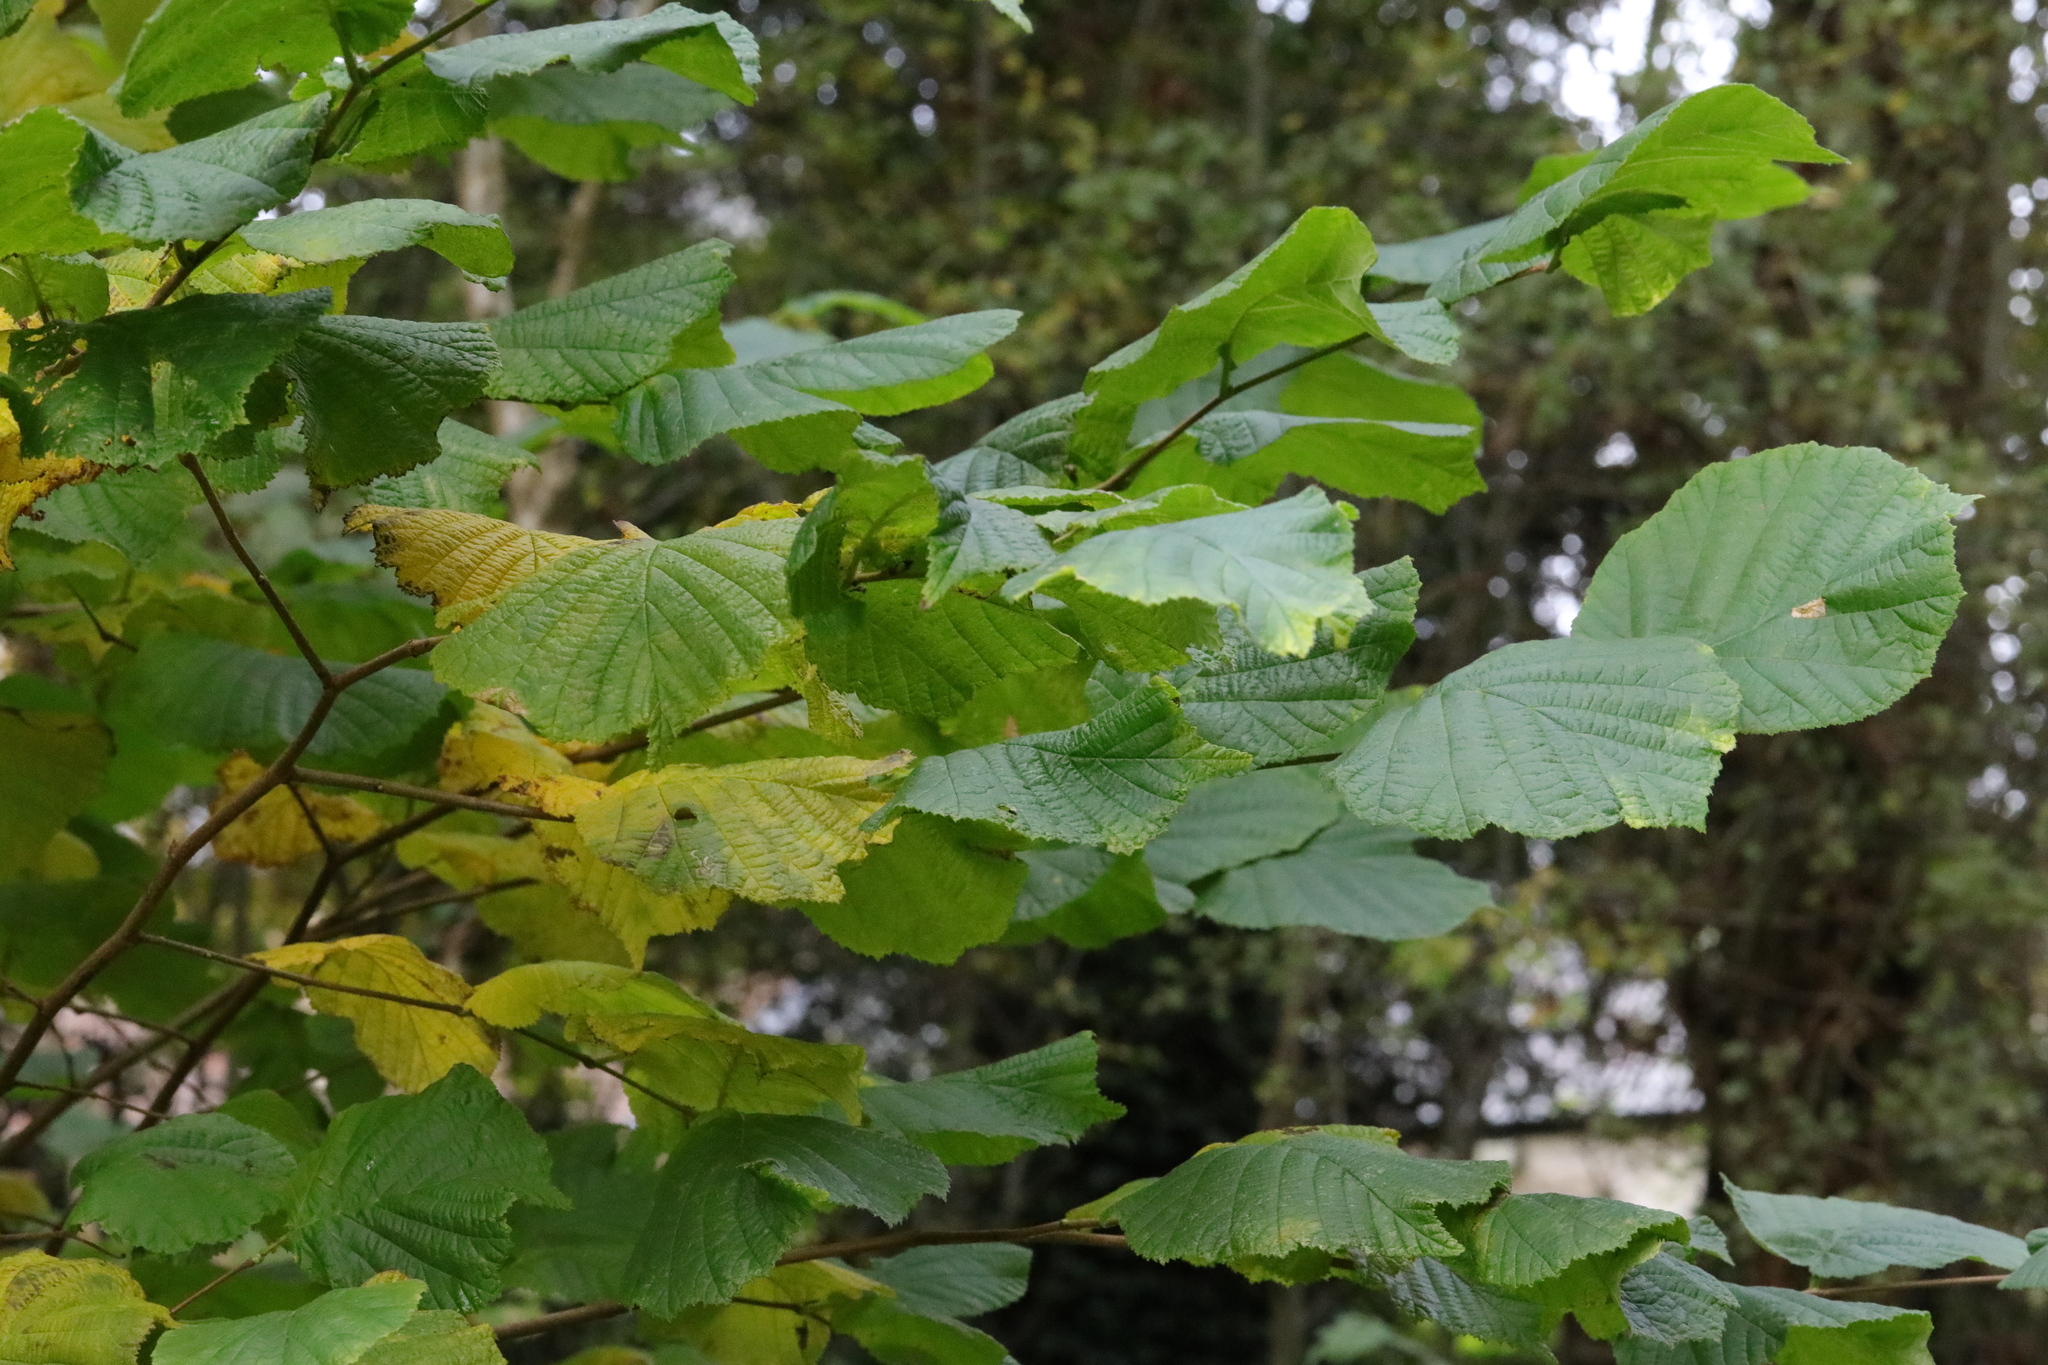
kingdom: Plantae
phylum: Tracheophyta
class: Magnoliopsida
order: Fagales
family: Betulaceae
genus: Corylus
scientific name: Corylus avellana
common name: European hazel
